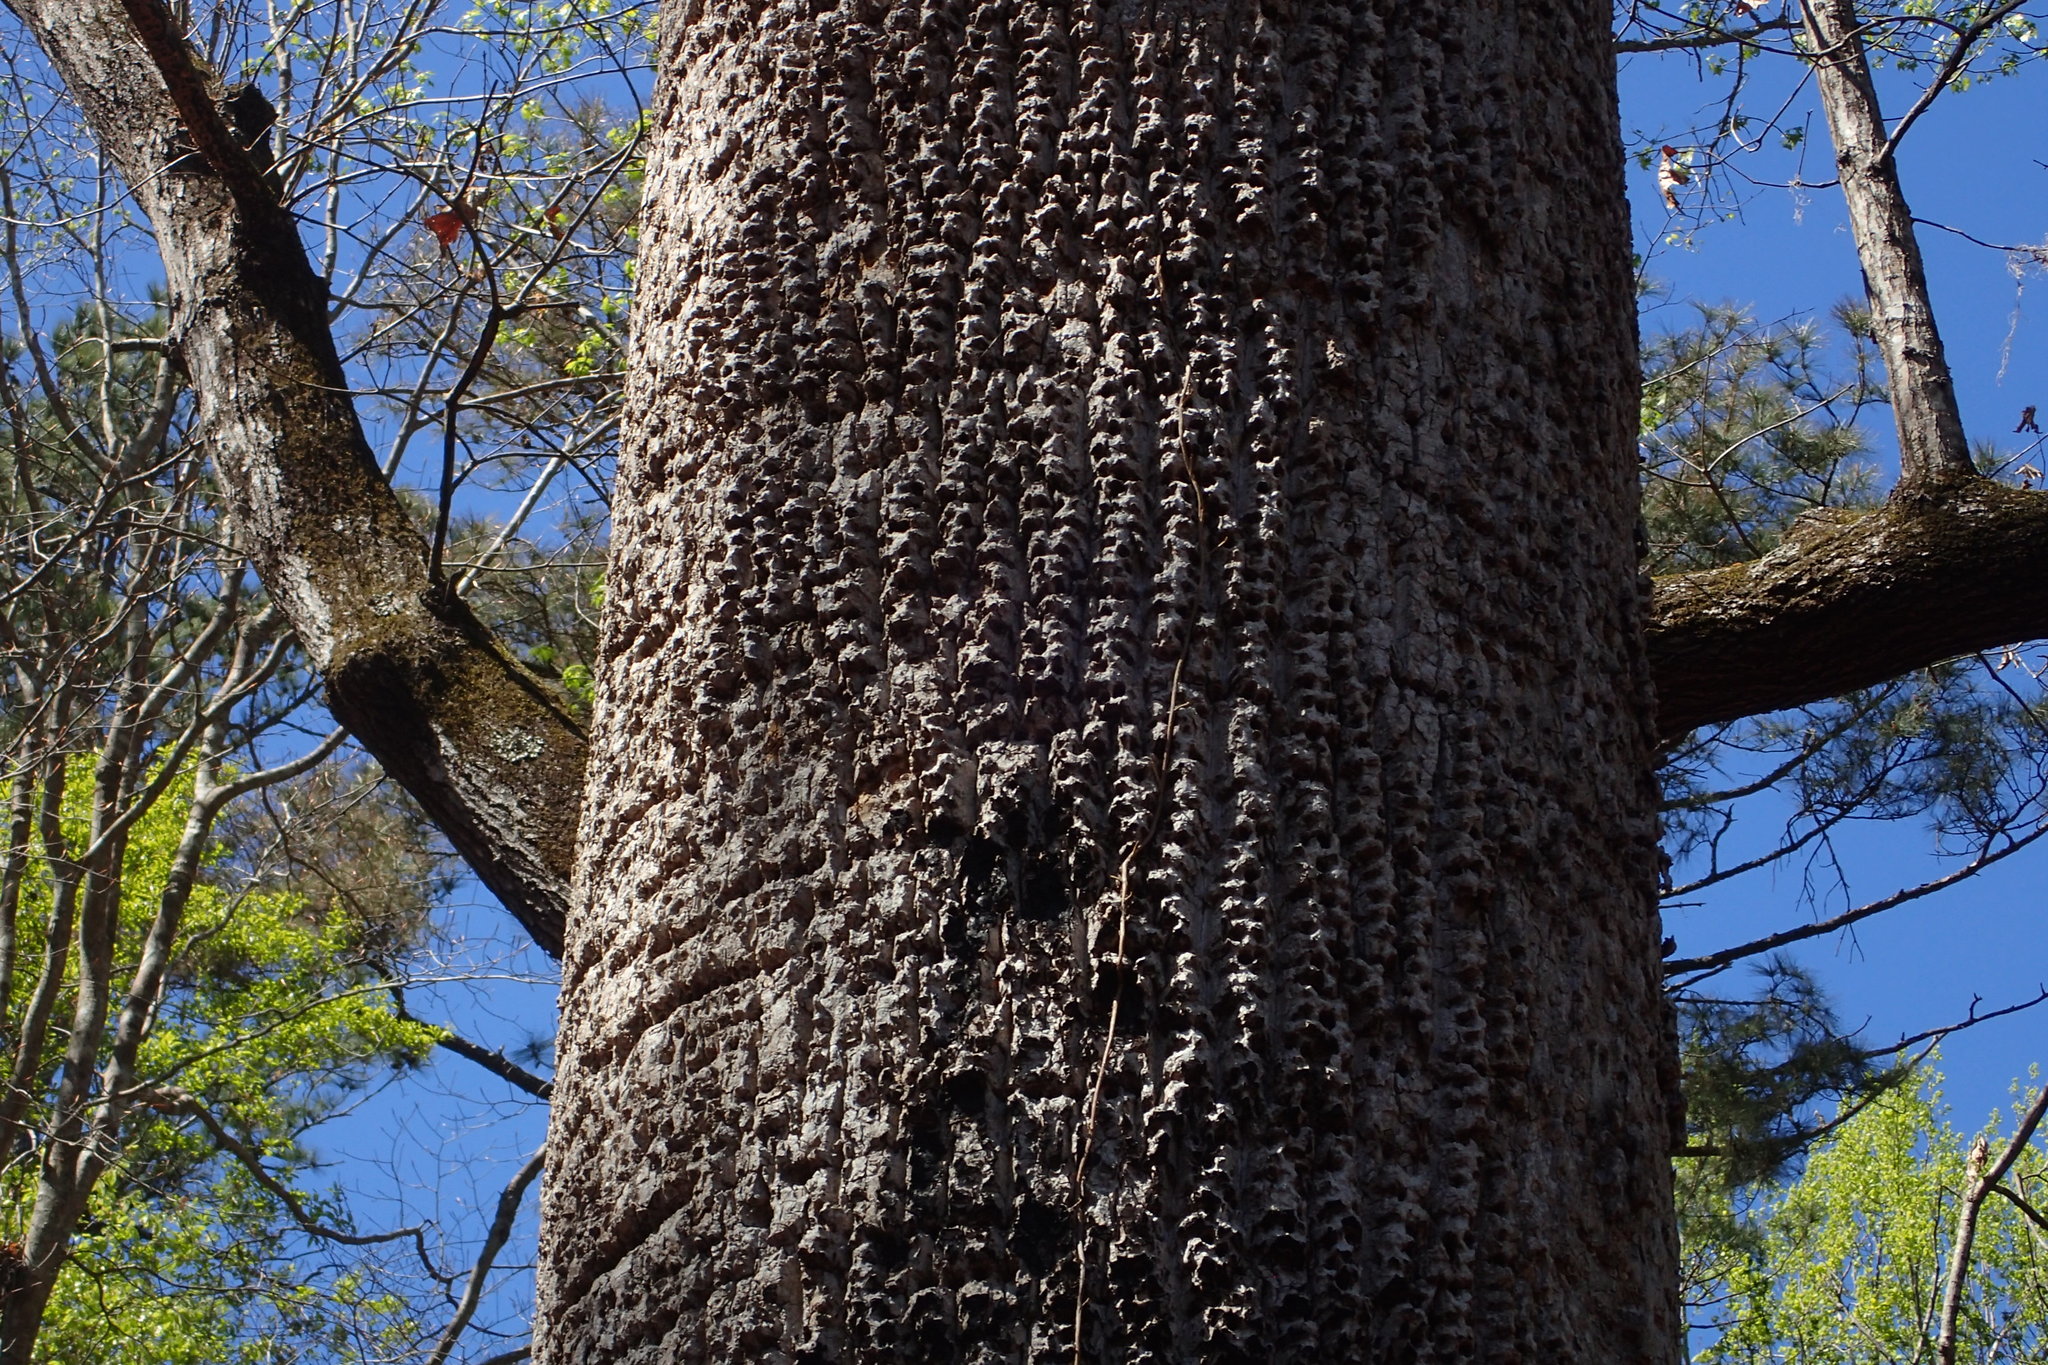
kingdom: Plantae
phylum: Tracheophyta
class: Magnoliopsida
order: Magnoliales
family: Magnoliaceae
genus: Liriodendron
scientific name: Liriodendron tulipifera
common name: Tulip tree
